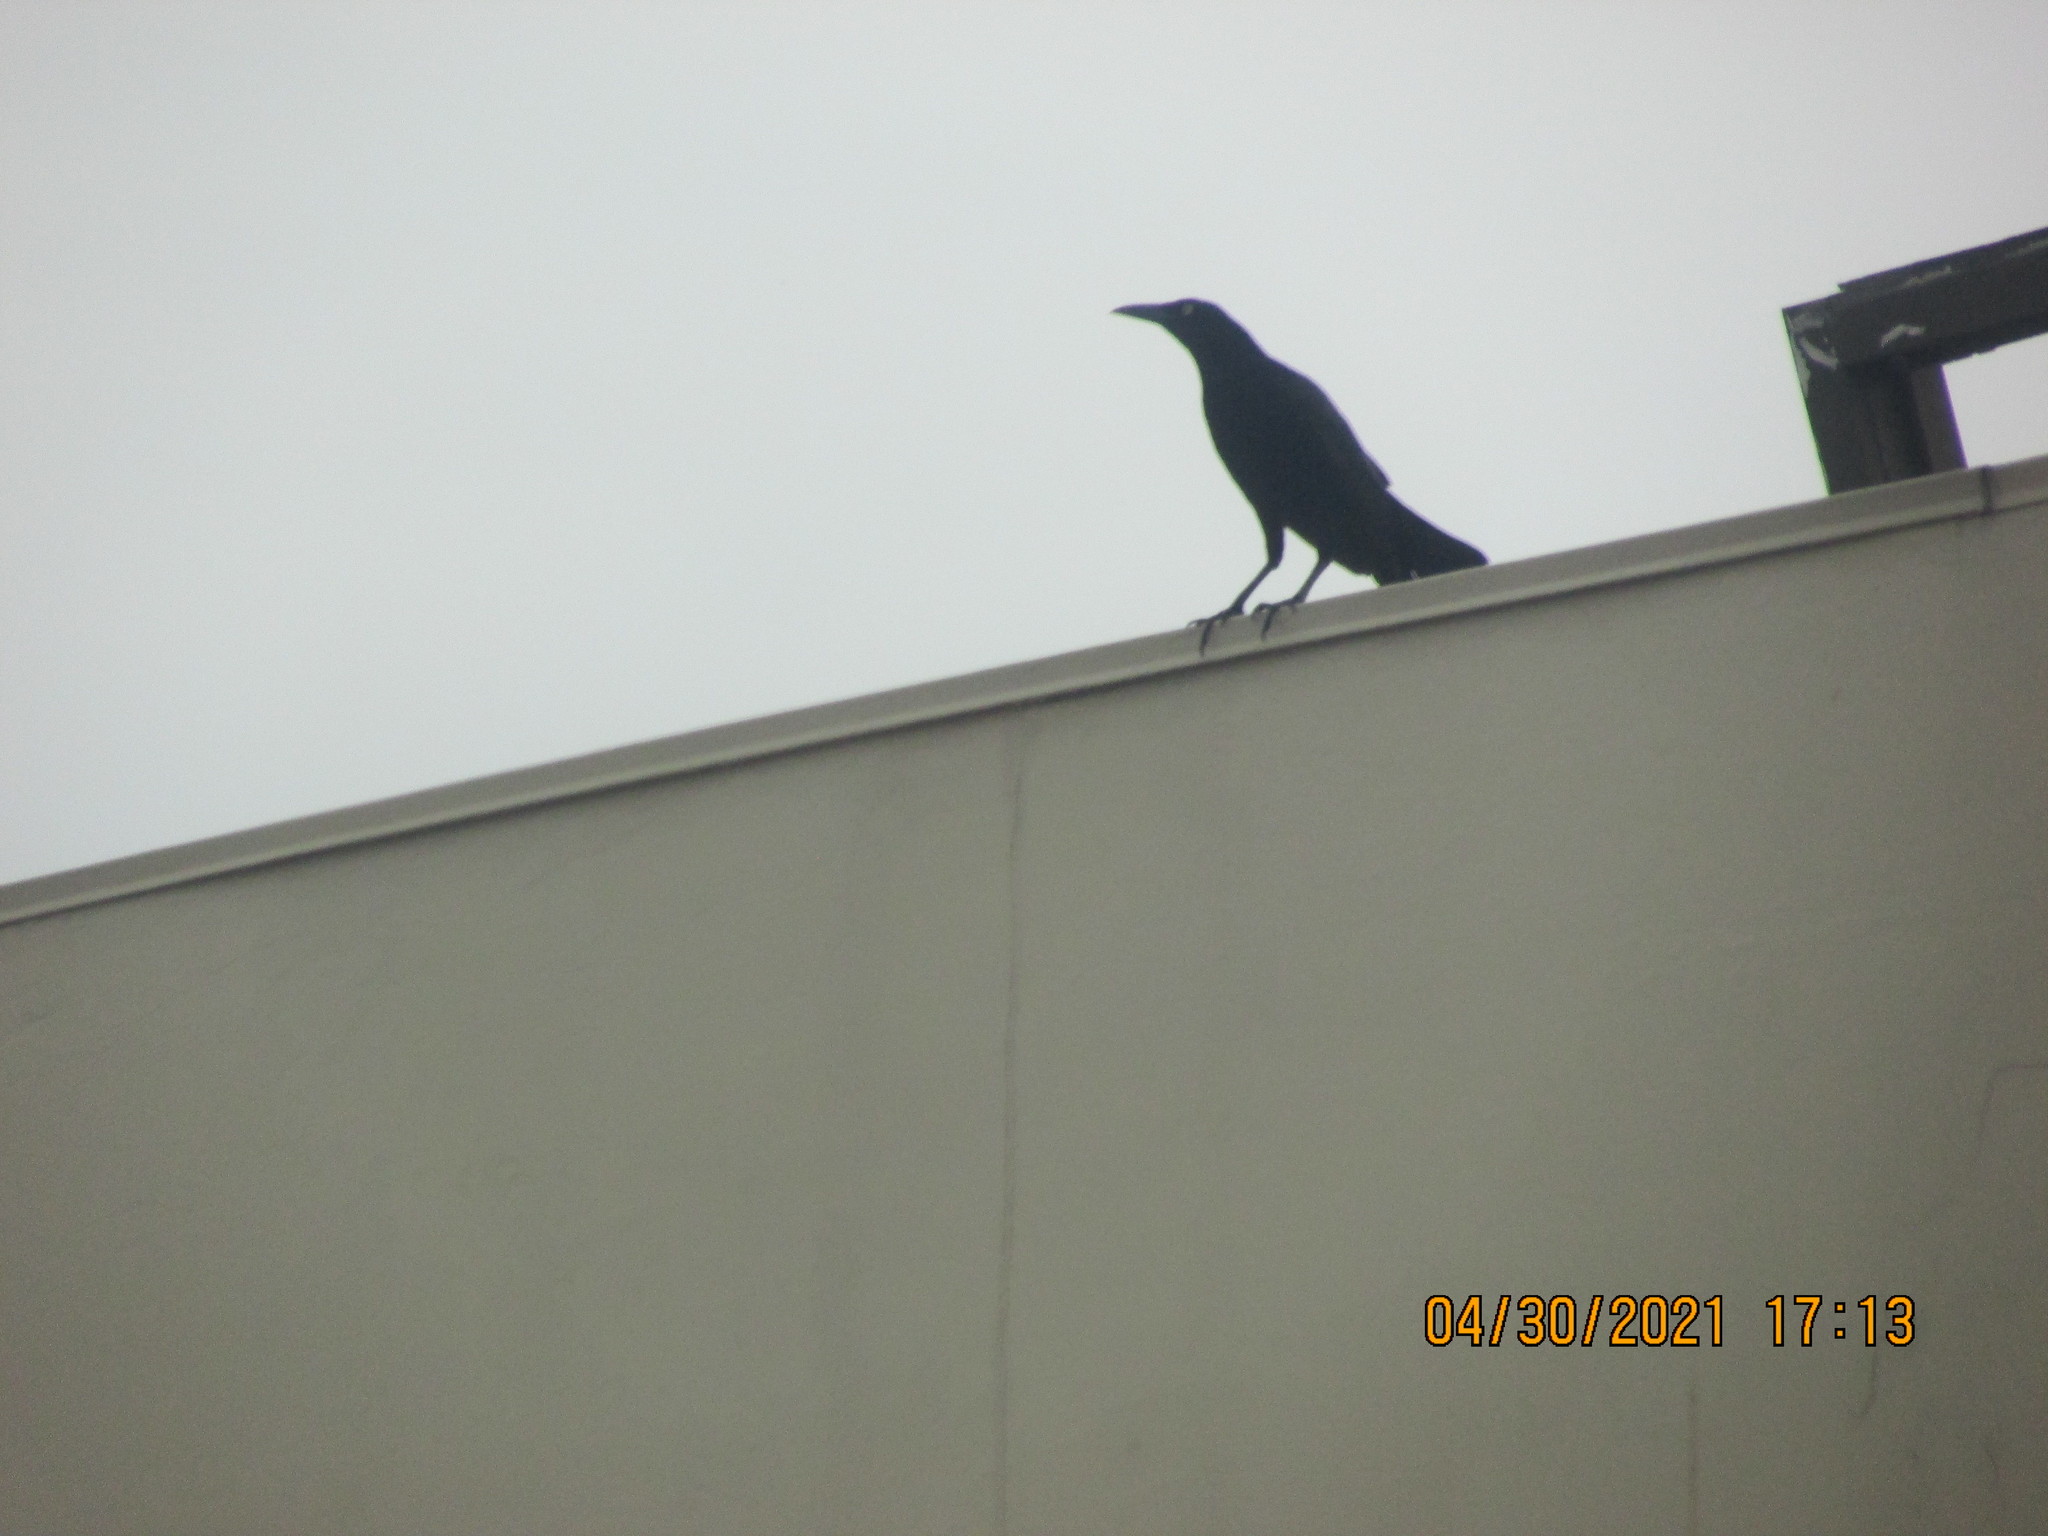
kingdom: Animalia
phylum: Chordata
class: Aves
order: Passeriformes
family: Icteridae
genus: Quiscalus
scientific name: Quiscalus mexicanus
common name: Great-tailed grackle
